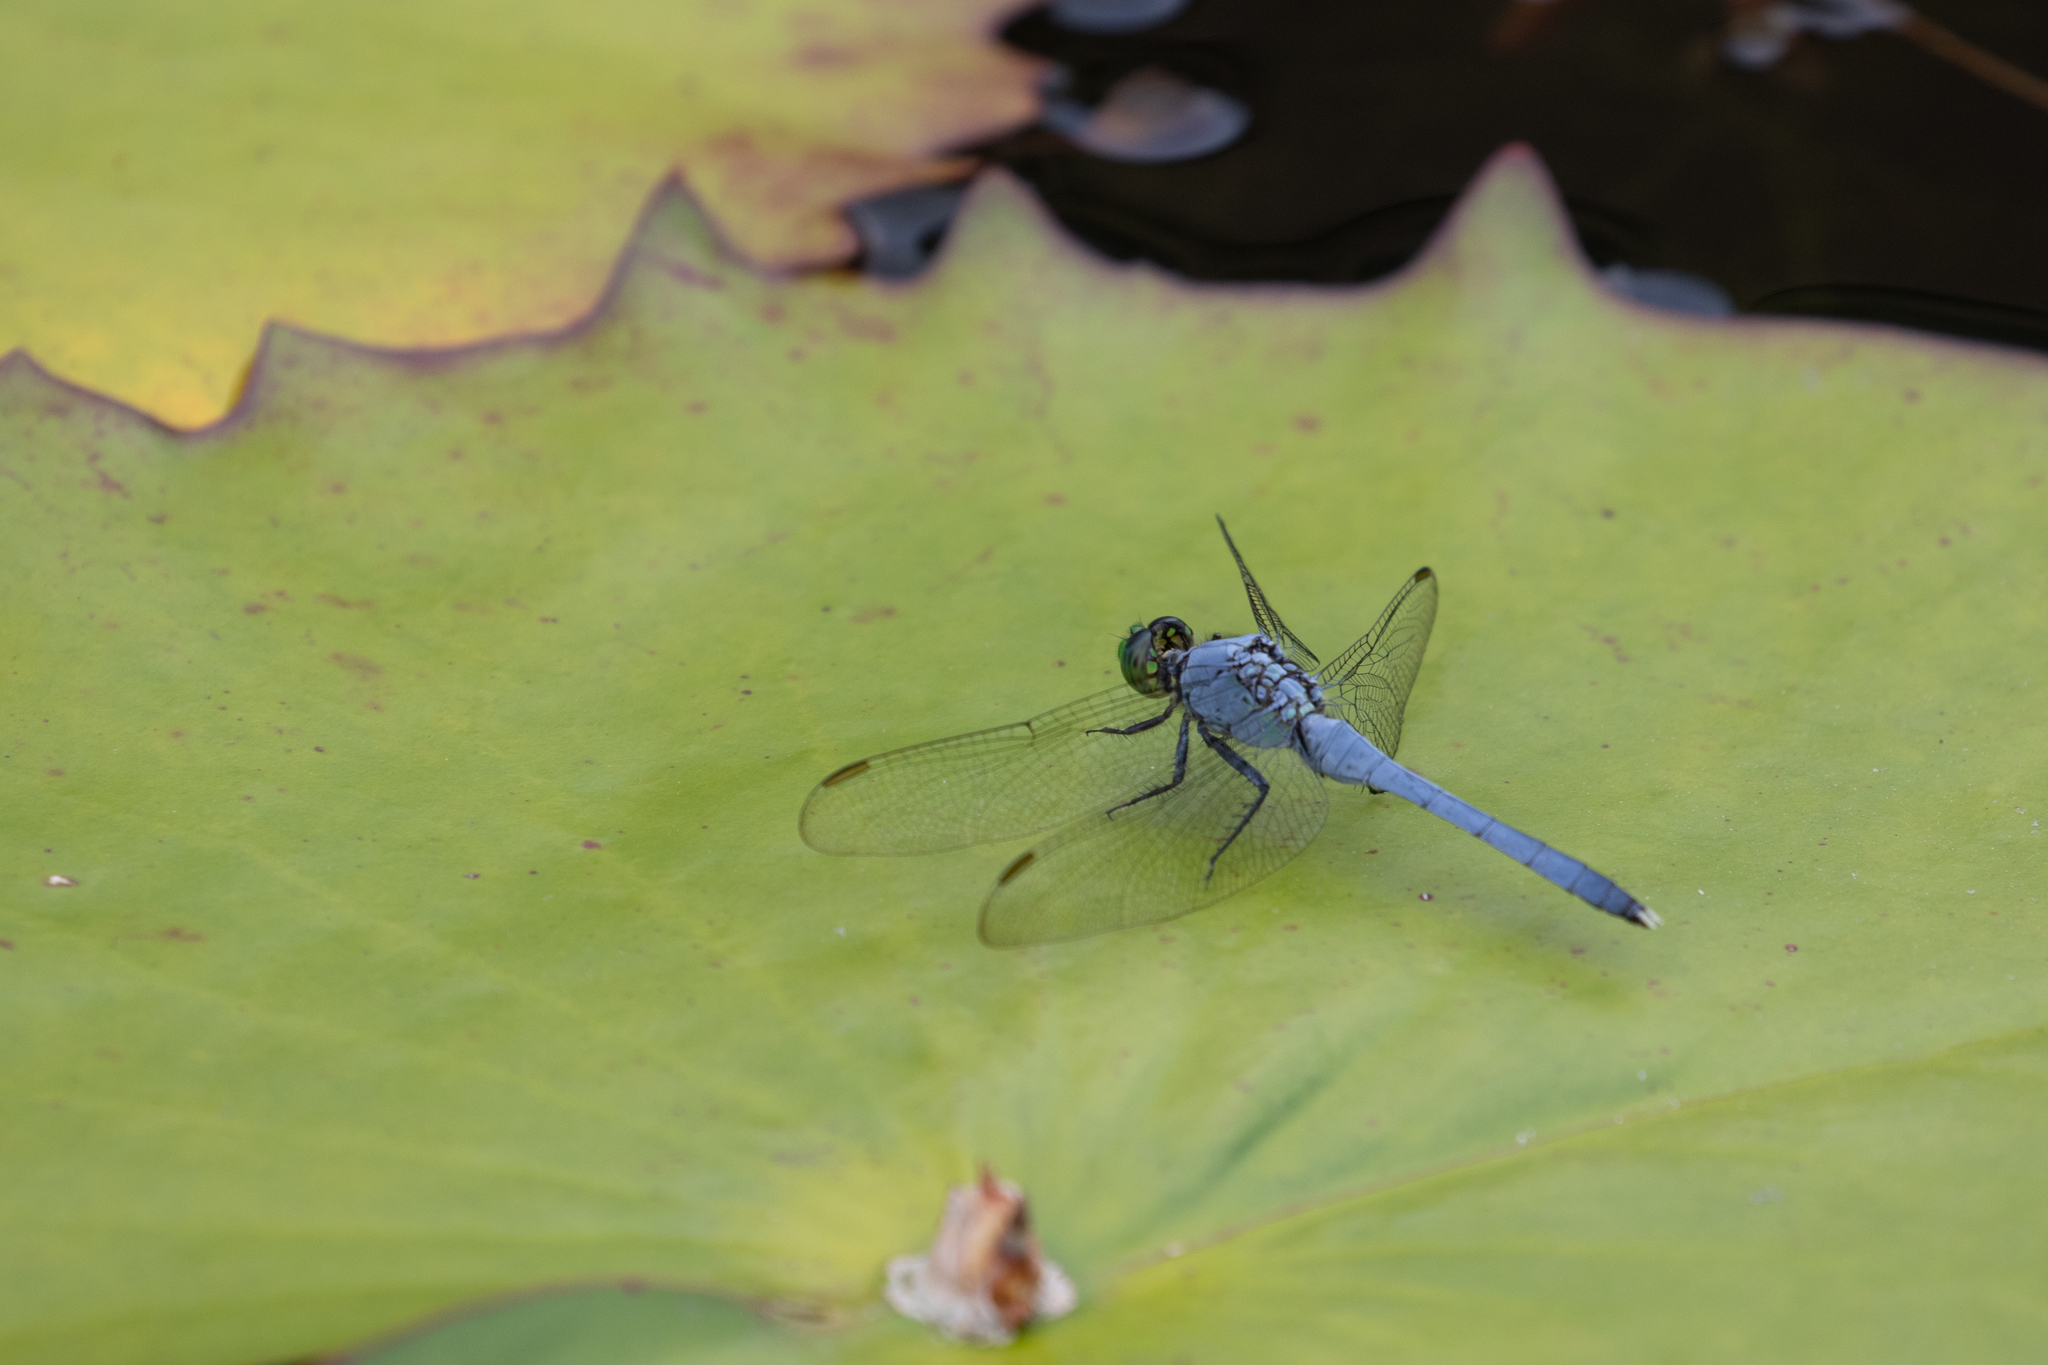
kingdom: Animalia
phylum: Arthropoda
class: Insecta
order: Odonata
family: Libellulidae
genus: Erythemis
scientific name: Erythemis simplicicollis
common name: Eastern pondhawk
